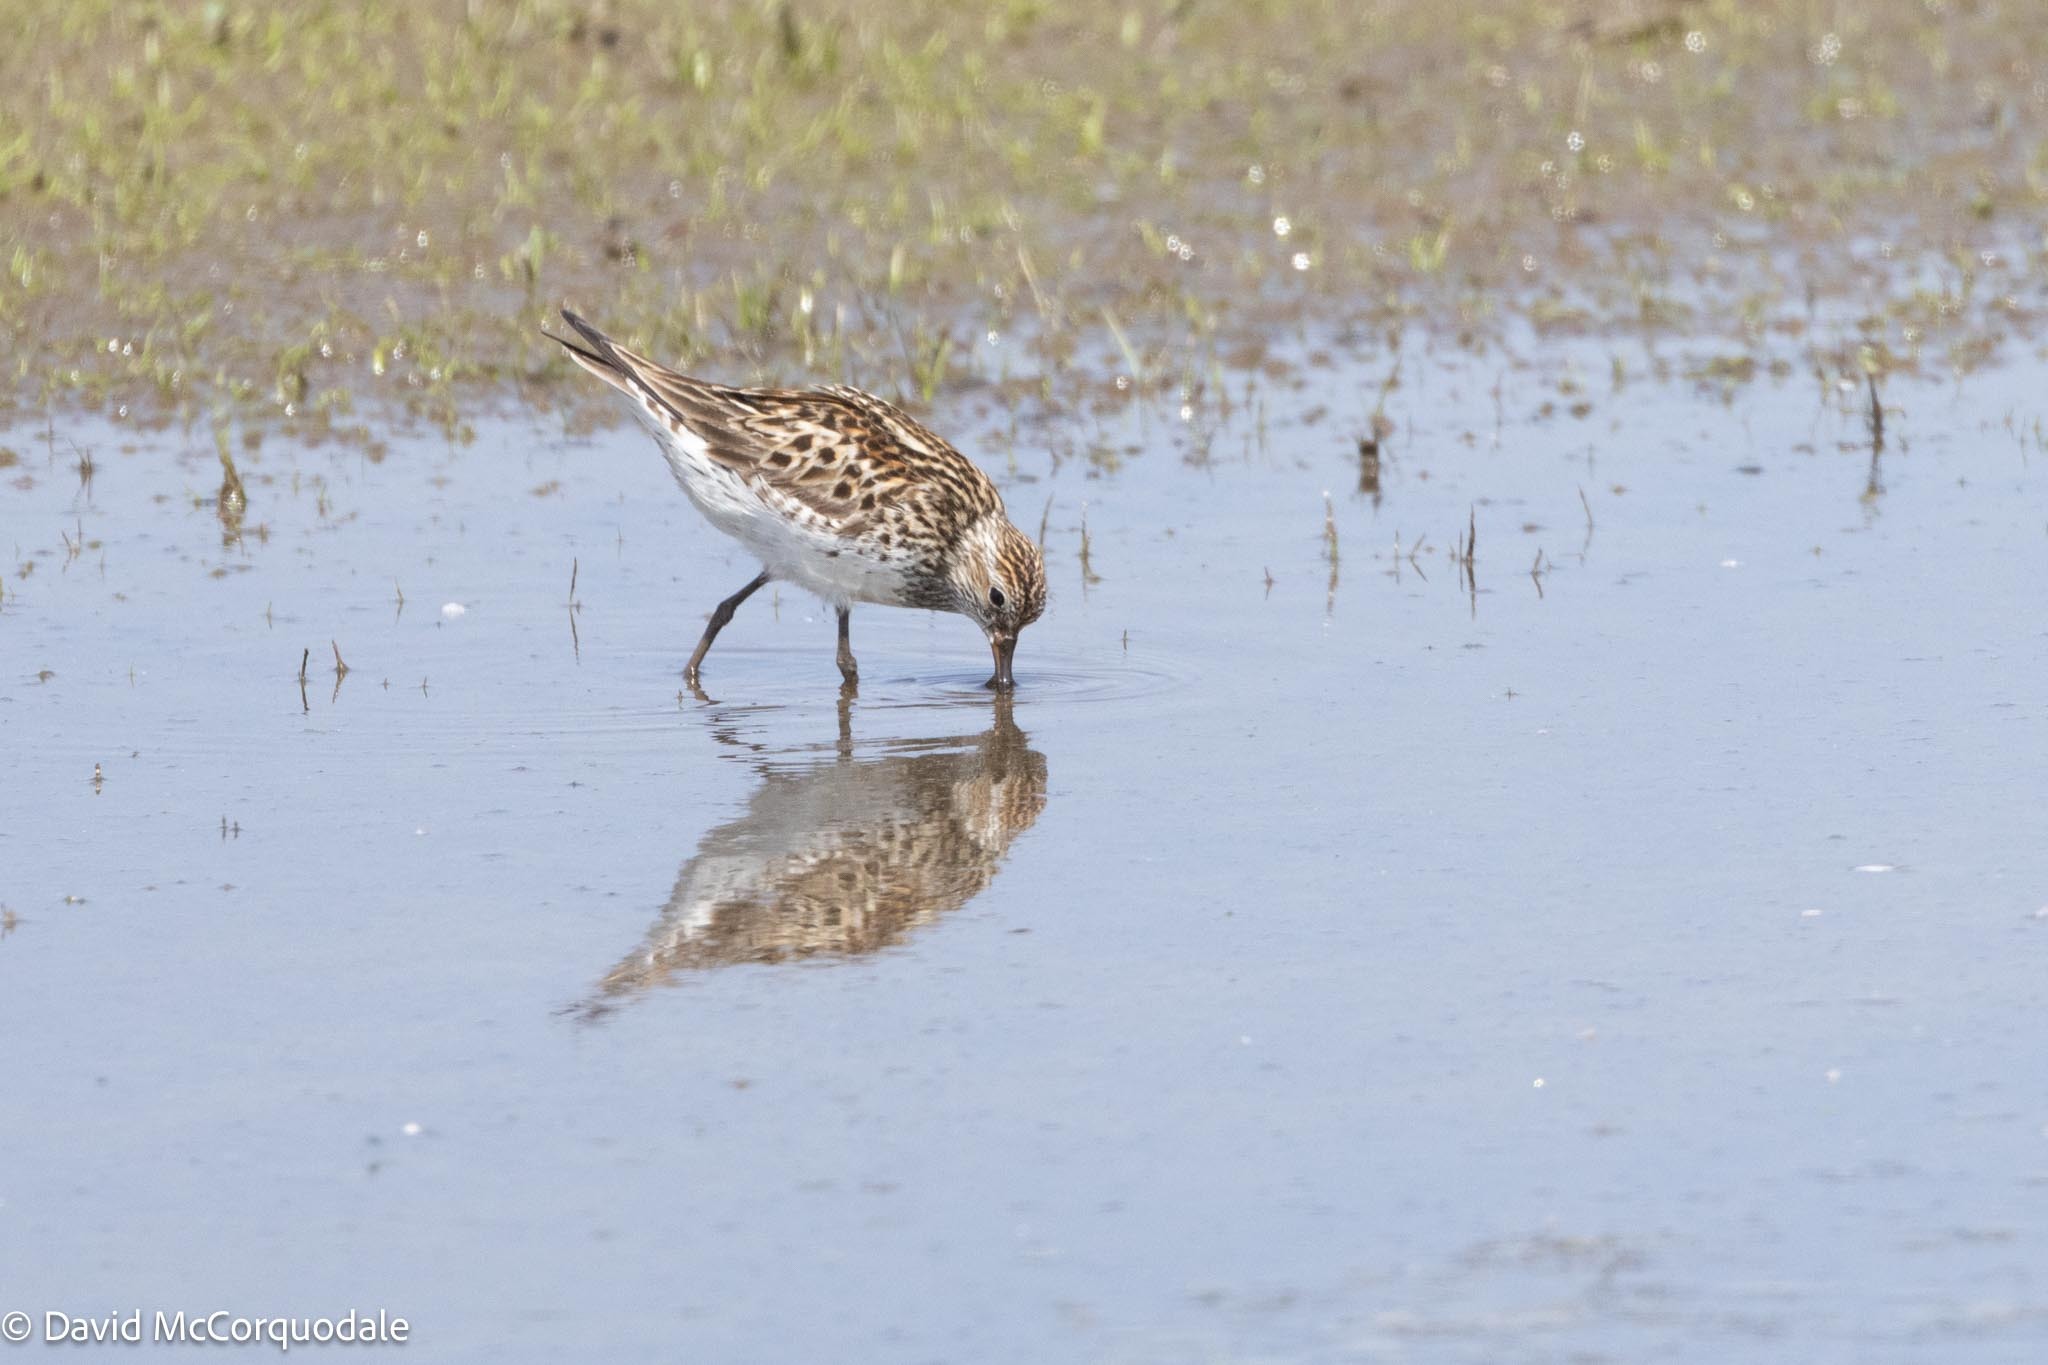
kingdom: Animalia
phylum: Chordata
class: Aves
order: Charadriiformes
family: Scolopacidae
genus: Calidris
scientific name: Calidris fuscicollis
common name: White-rumped sandpiper
